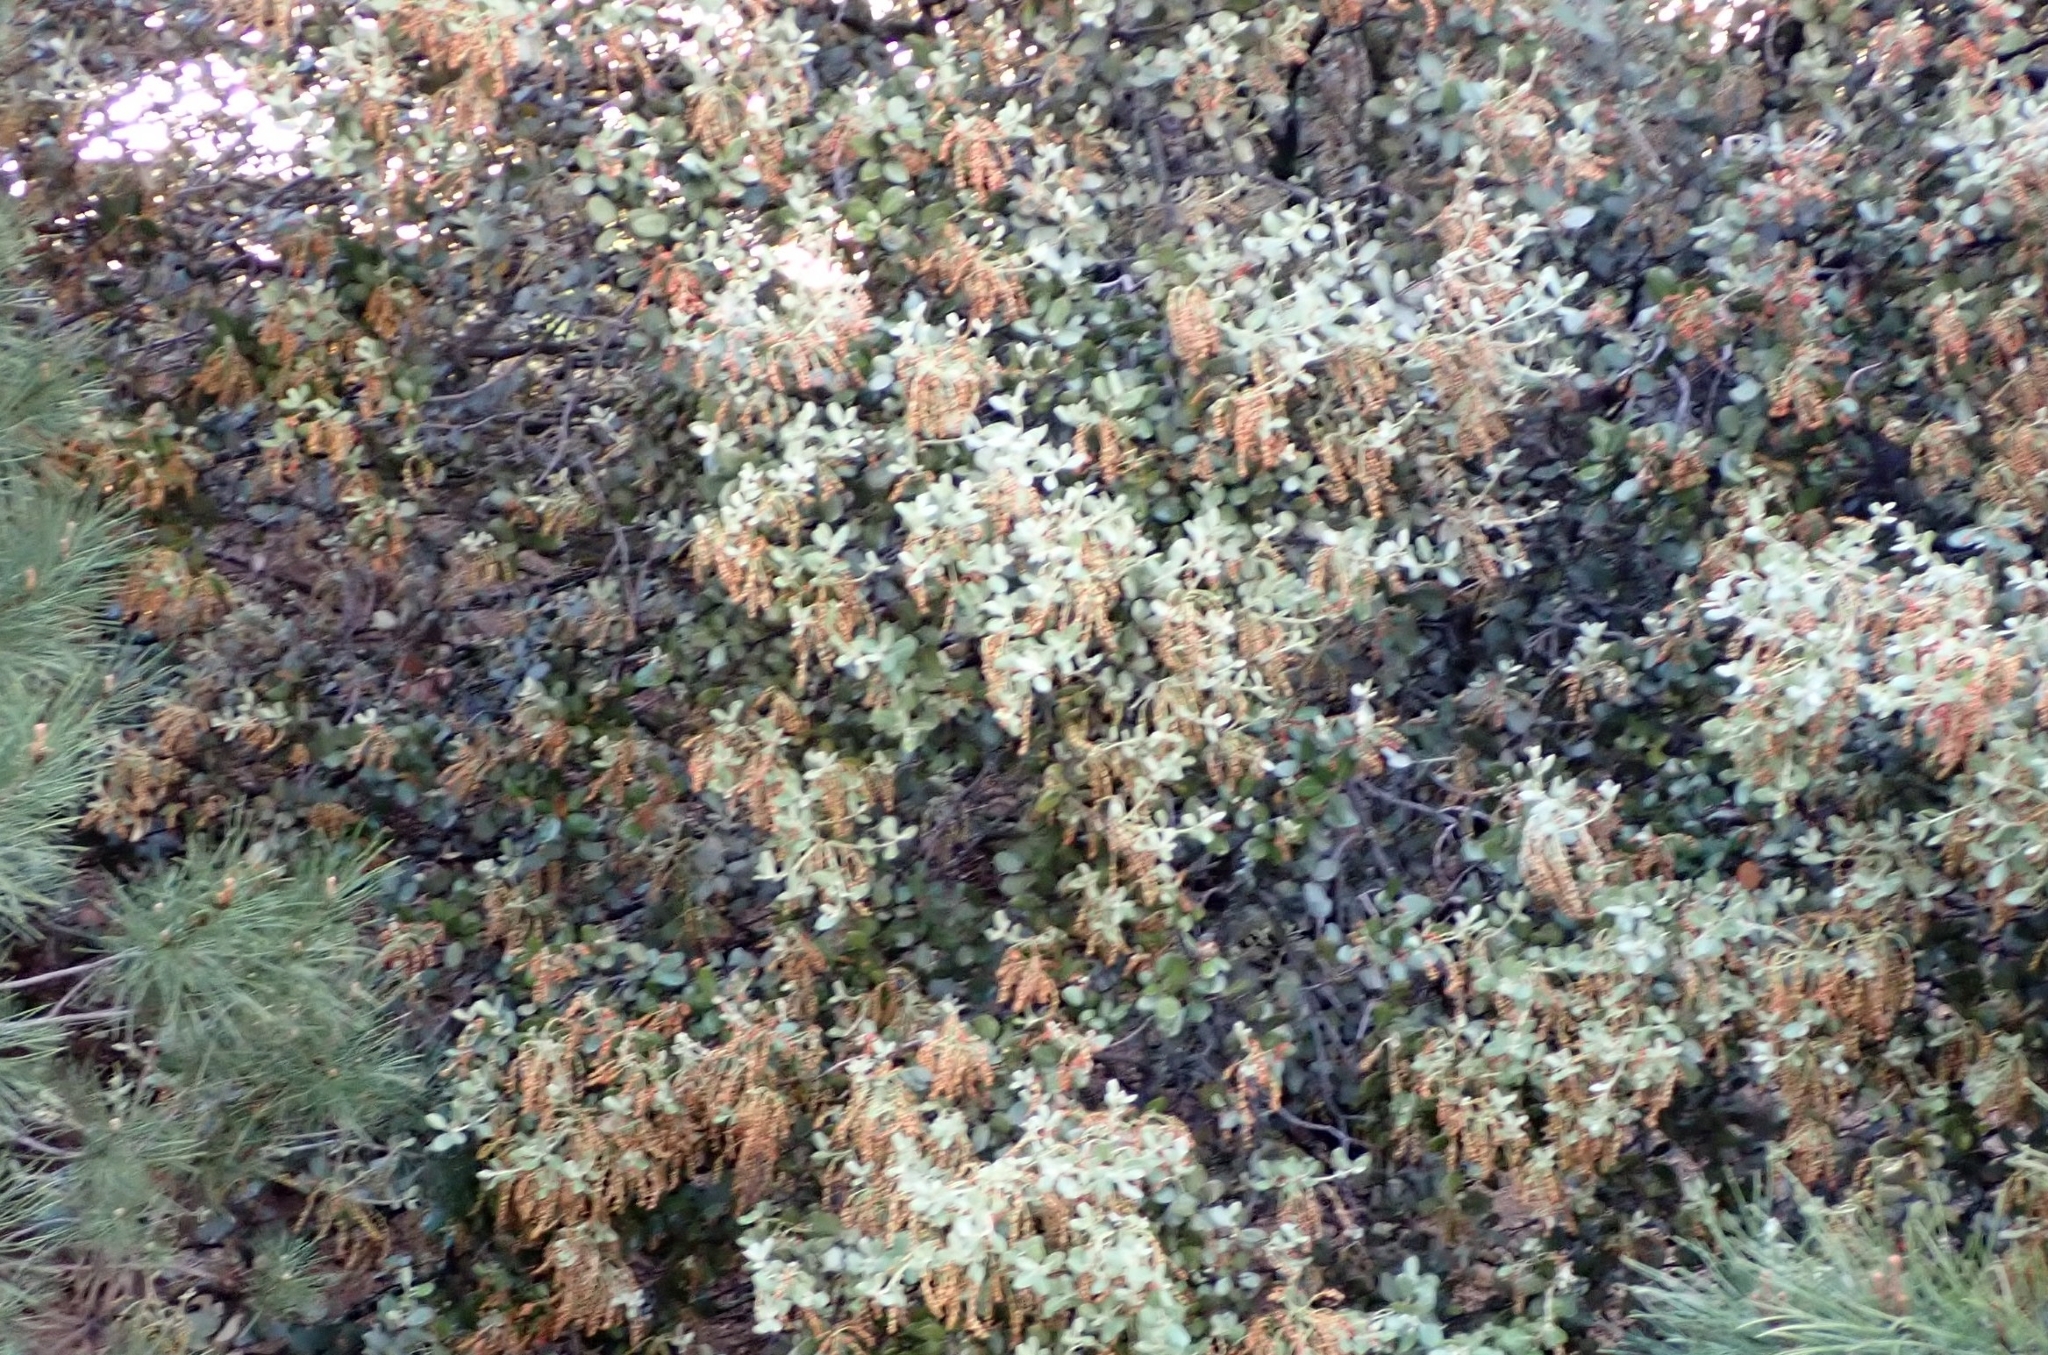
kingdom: Plantae
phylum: Tracheophyta
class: Magnoliopsida
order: Fagales
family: Fagaceae
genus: Quercus
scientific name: Quercus rotundifolia
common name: Holm oak
